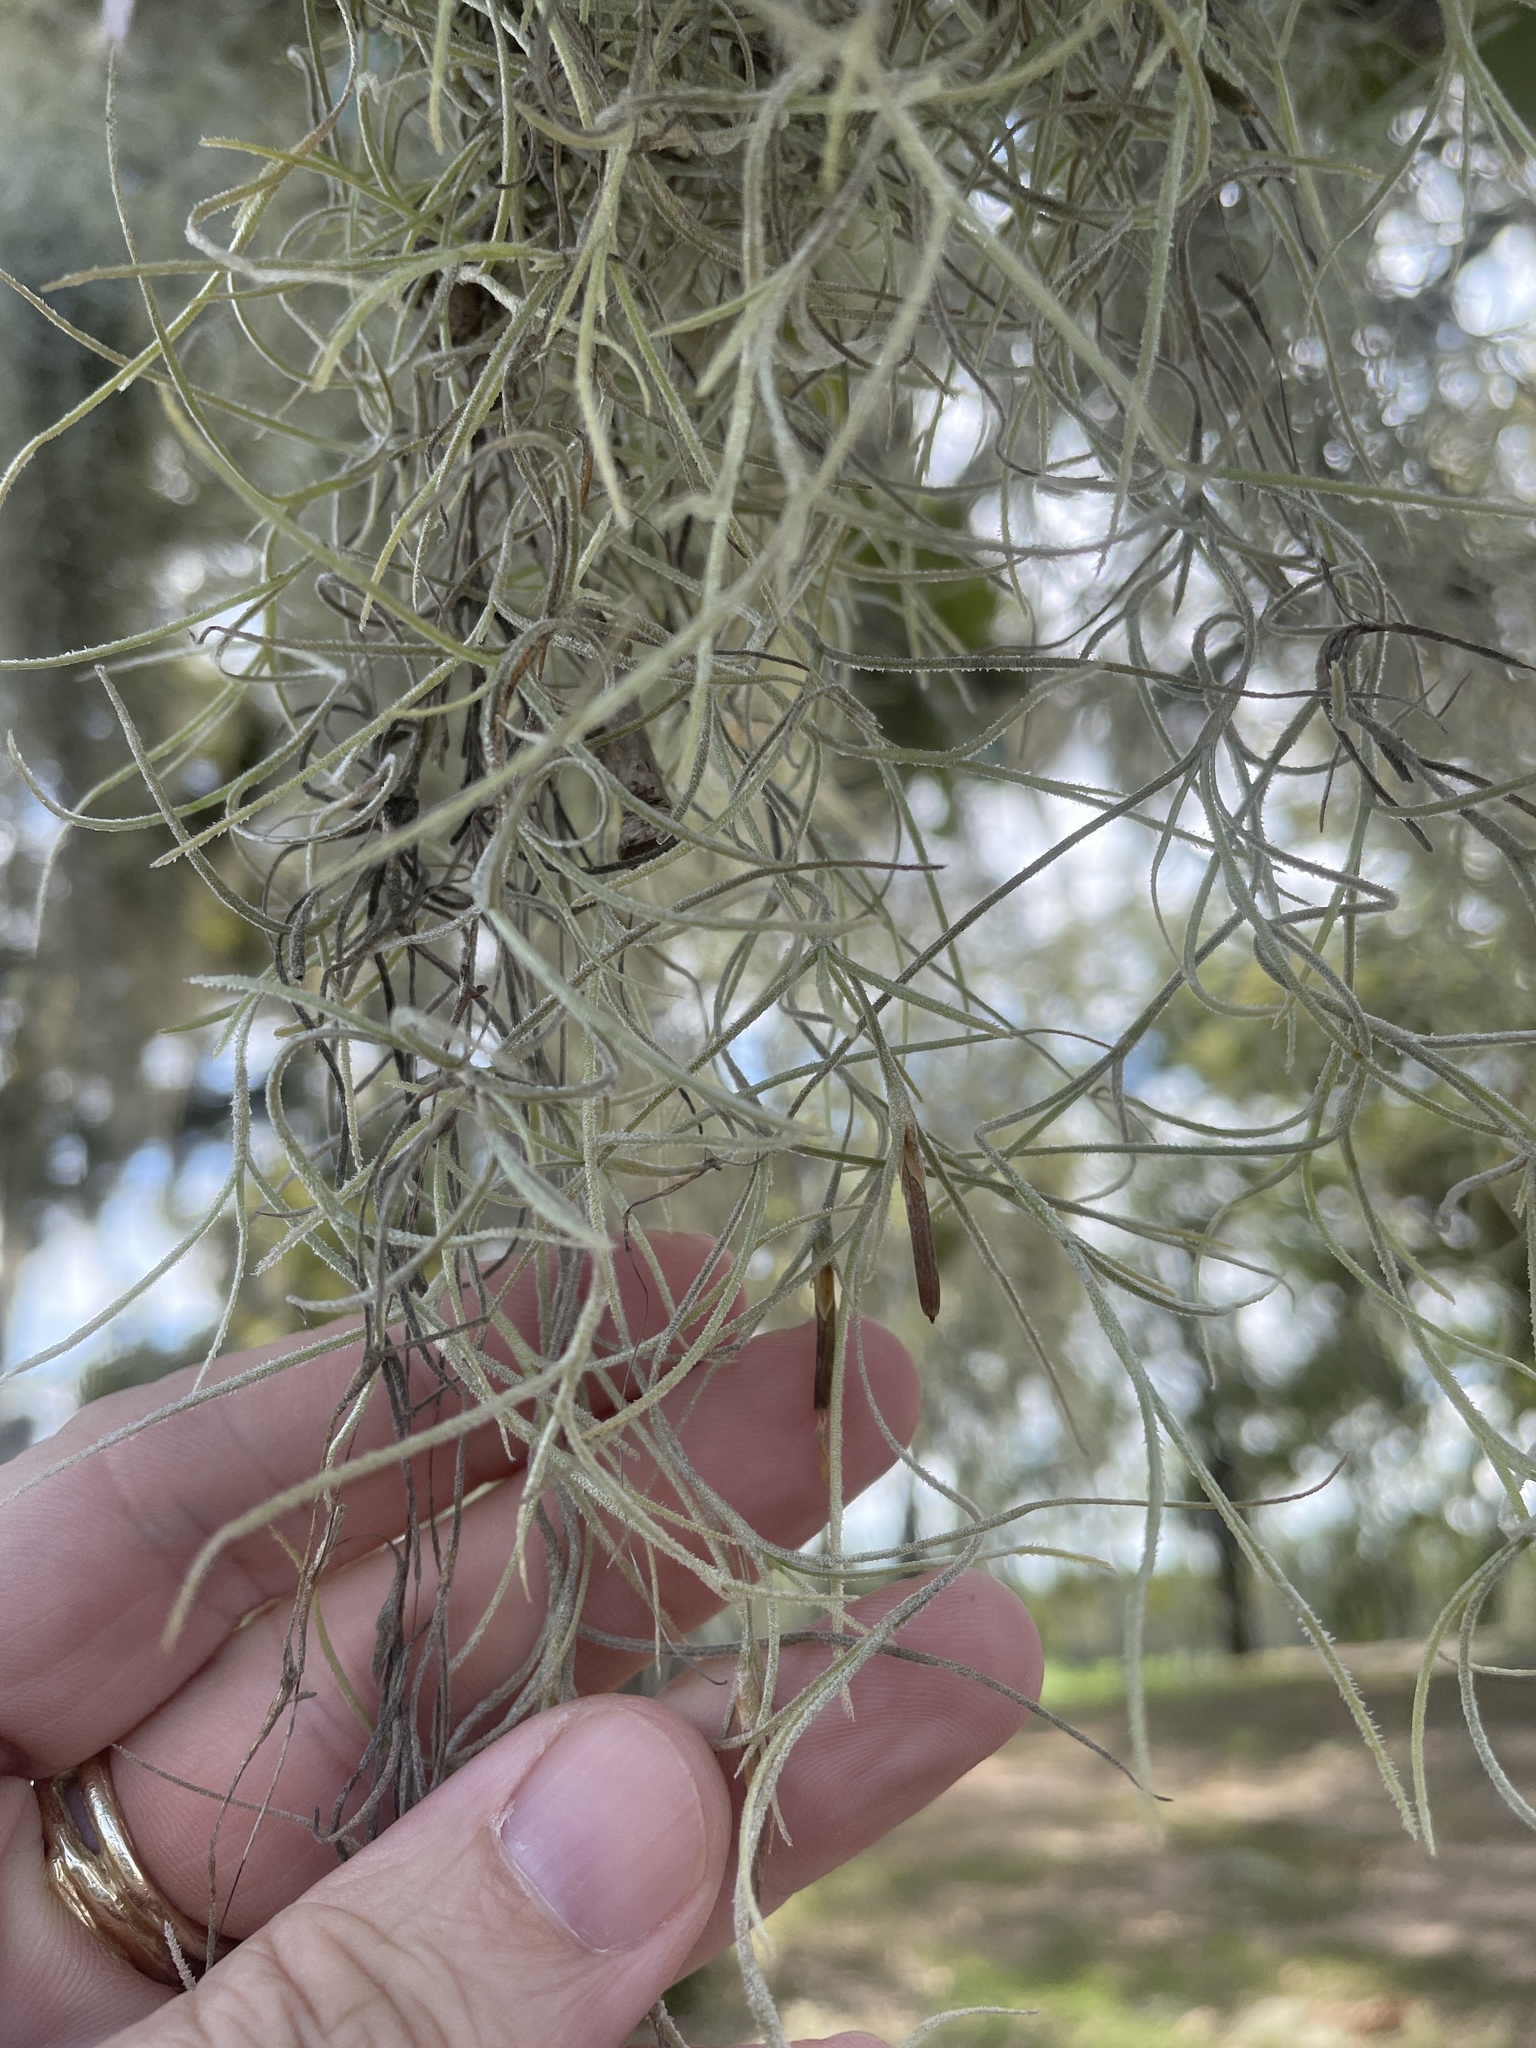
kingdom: Plantae
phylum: Tracheophyta
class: Liliopsida
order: Poales
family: Bromeliaceae
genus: Tillandsia
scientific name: Tillandsia usneoides
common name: Spanish moss
